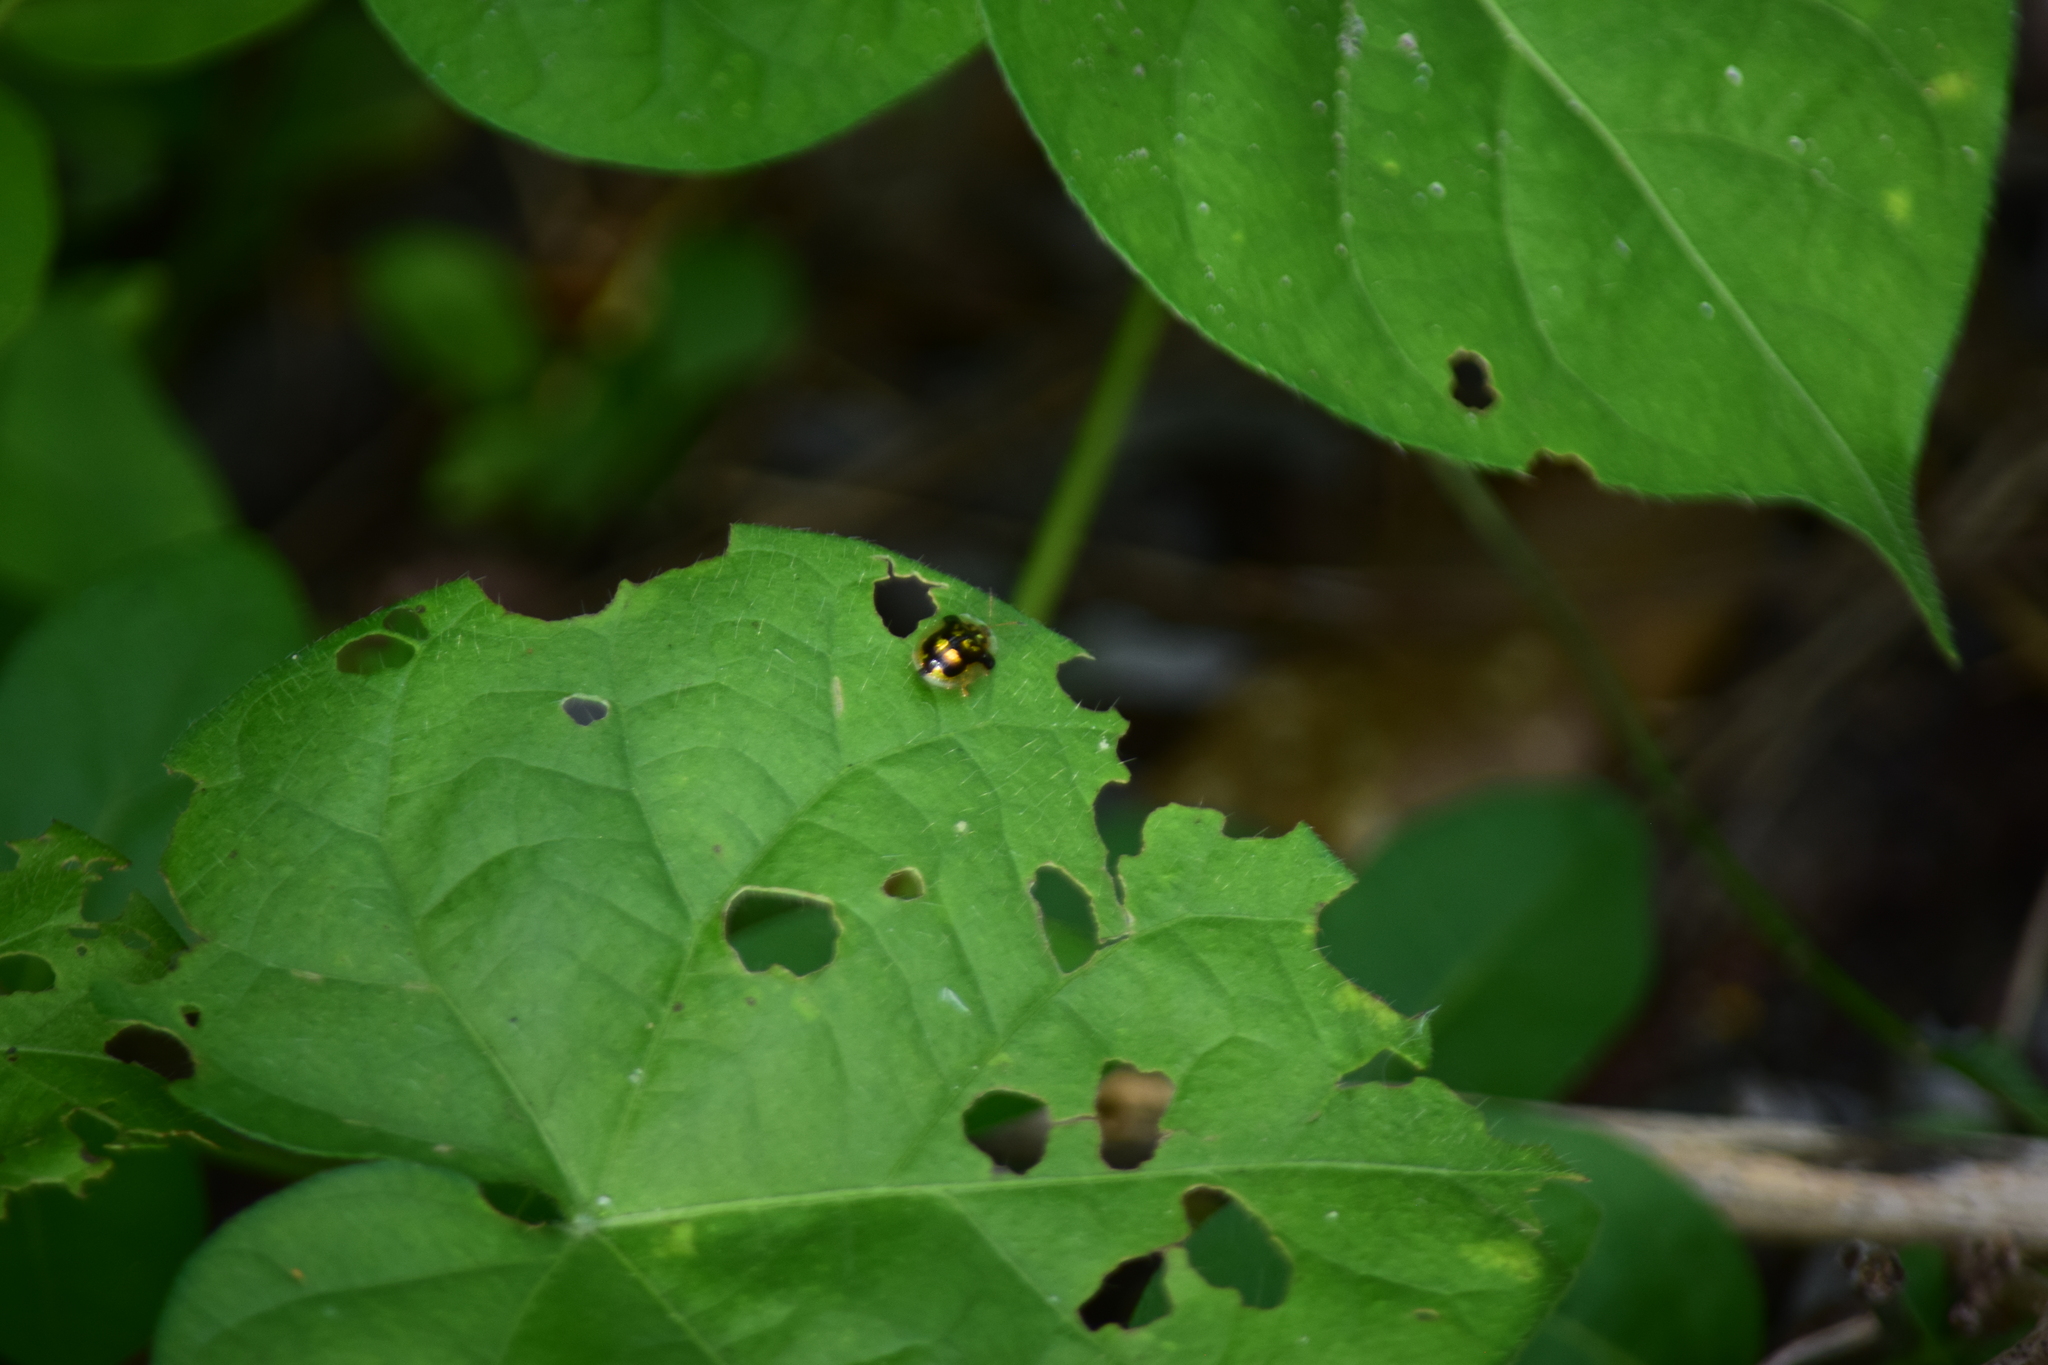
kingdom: Animalia
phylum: Arthropoda
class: Insecta
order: Coleoptera
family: Chrysomelidae
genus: Deloyala
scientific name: Deloyala guttata
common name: Mottled tortoise beetle
